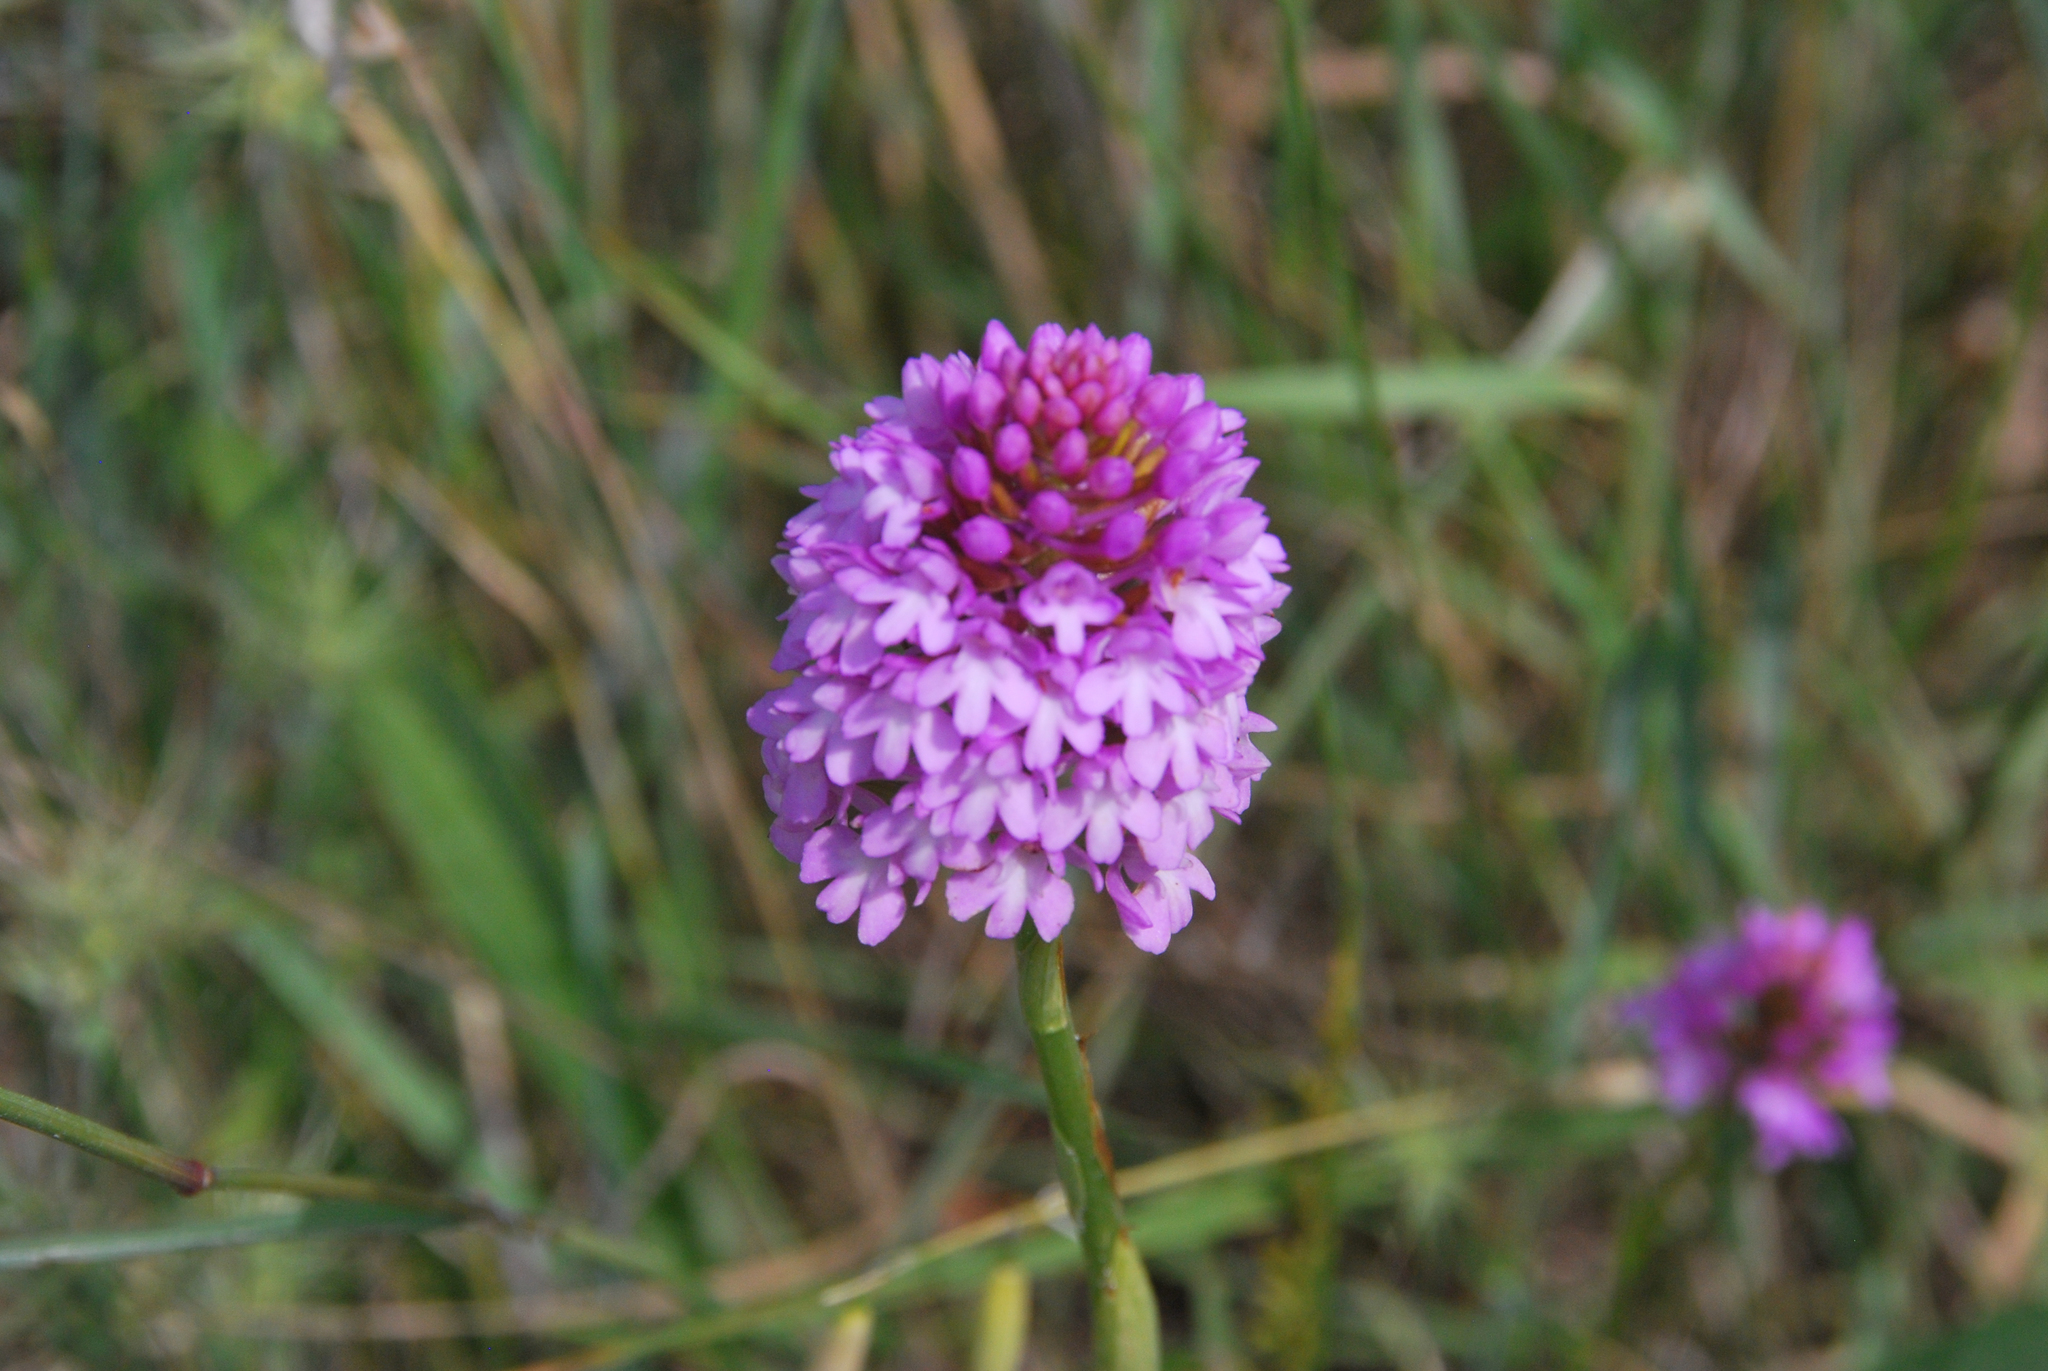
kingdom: Plantae
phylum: Tracheophyta
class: Liliopsida
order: Asparagales
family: Orchidaceae
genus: Anacamptis
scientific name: Anacamptis pyramidalis
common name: Pyramidal orchid
